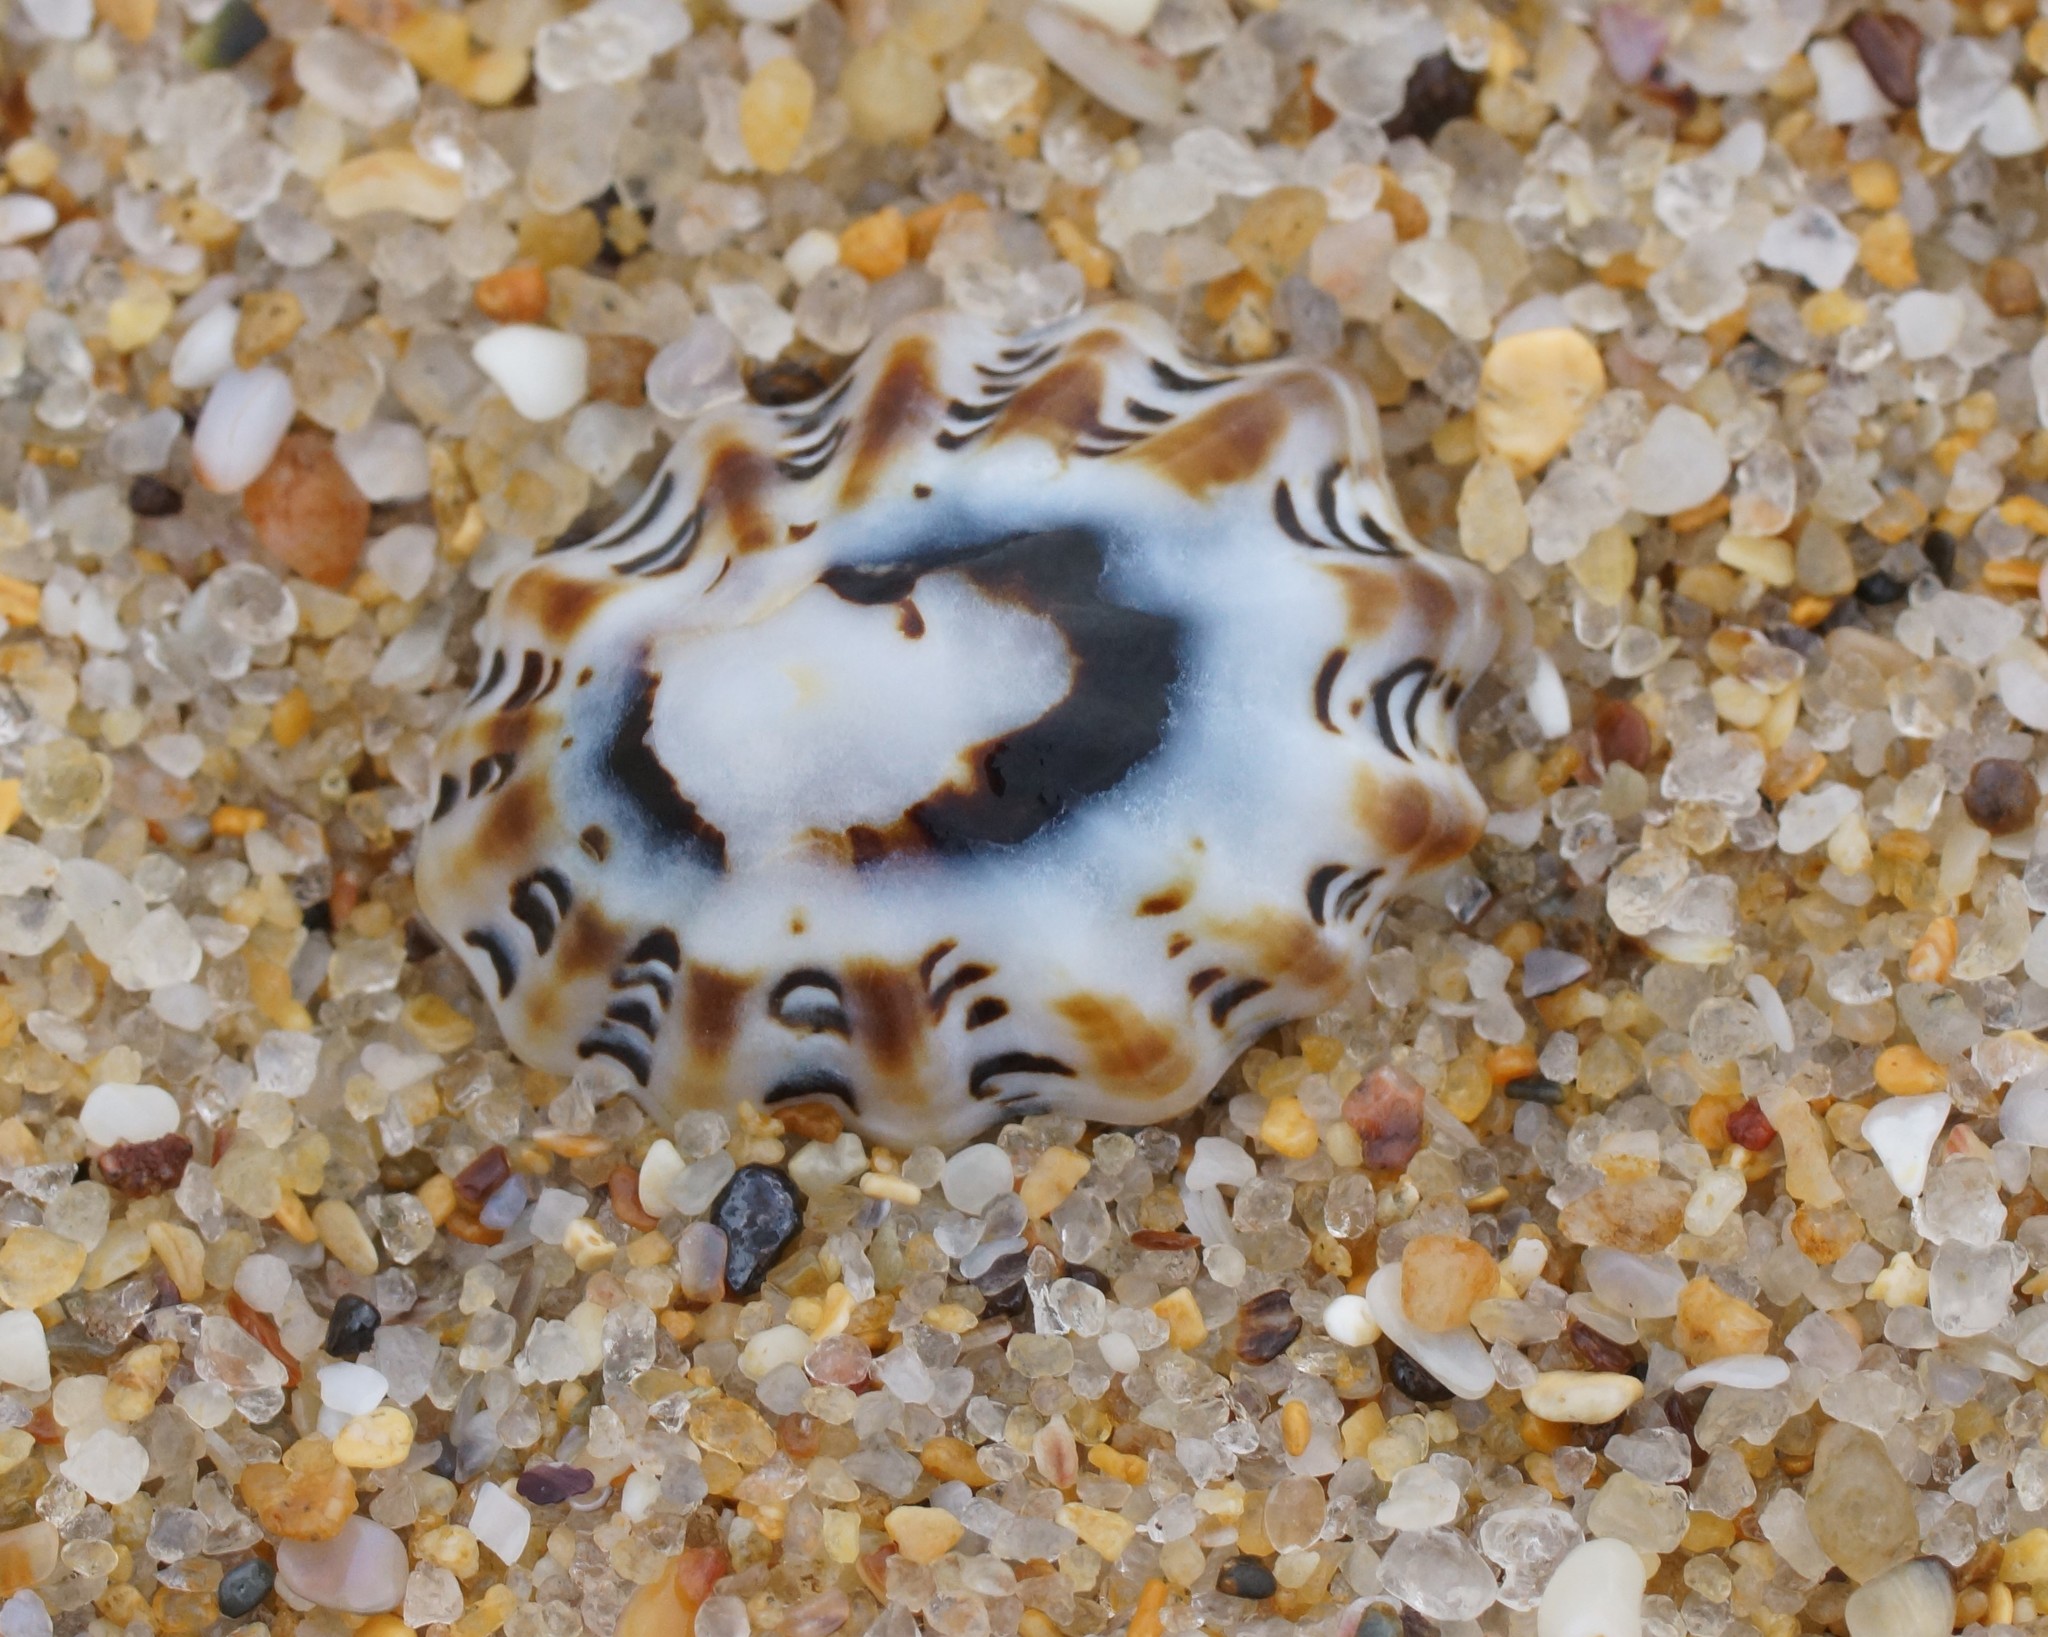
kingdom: Animalia
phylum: Mollusca
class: Gastropoda
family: Lottiidae
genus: Patelloida
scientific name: Patelloida alticostata
